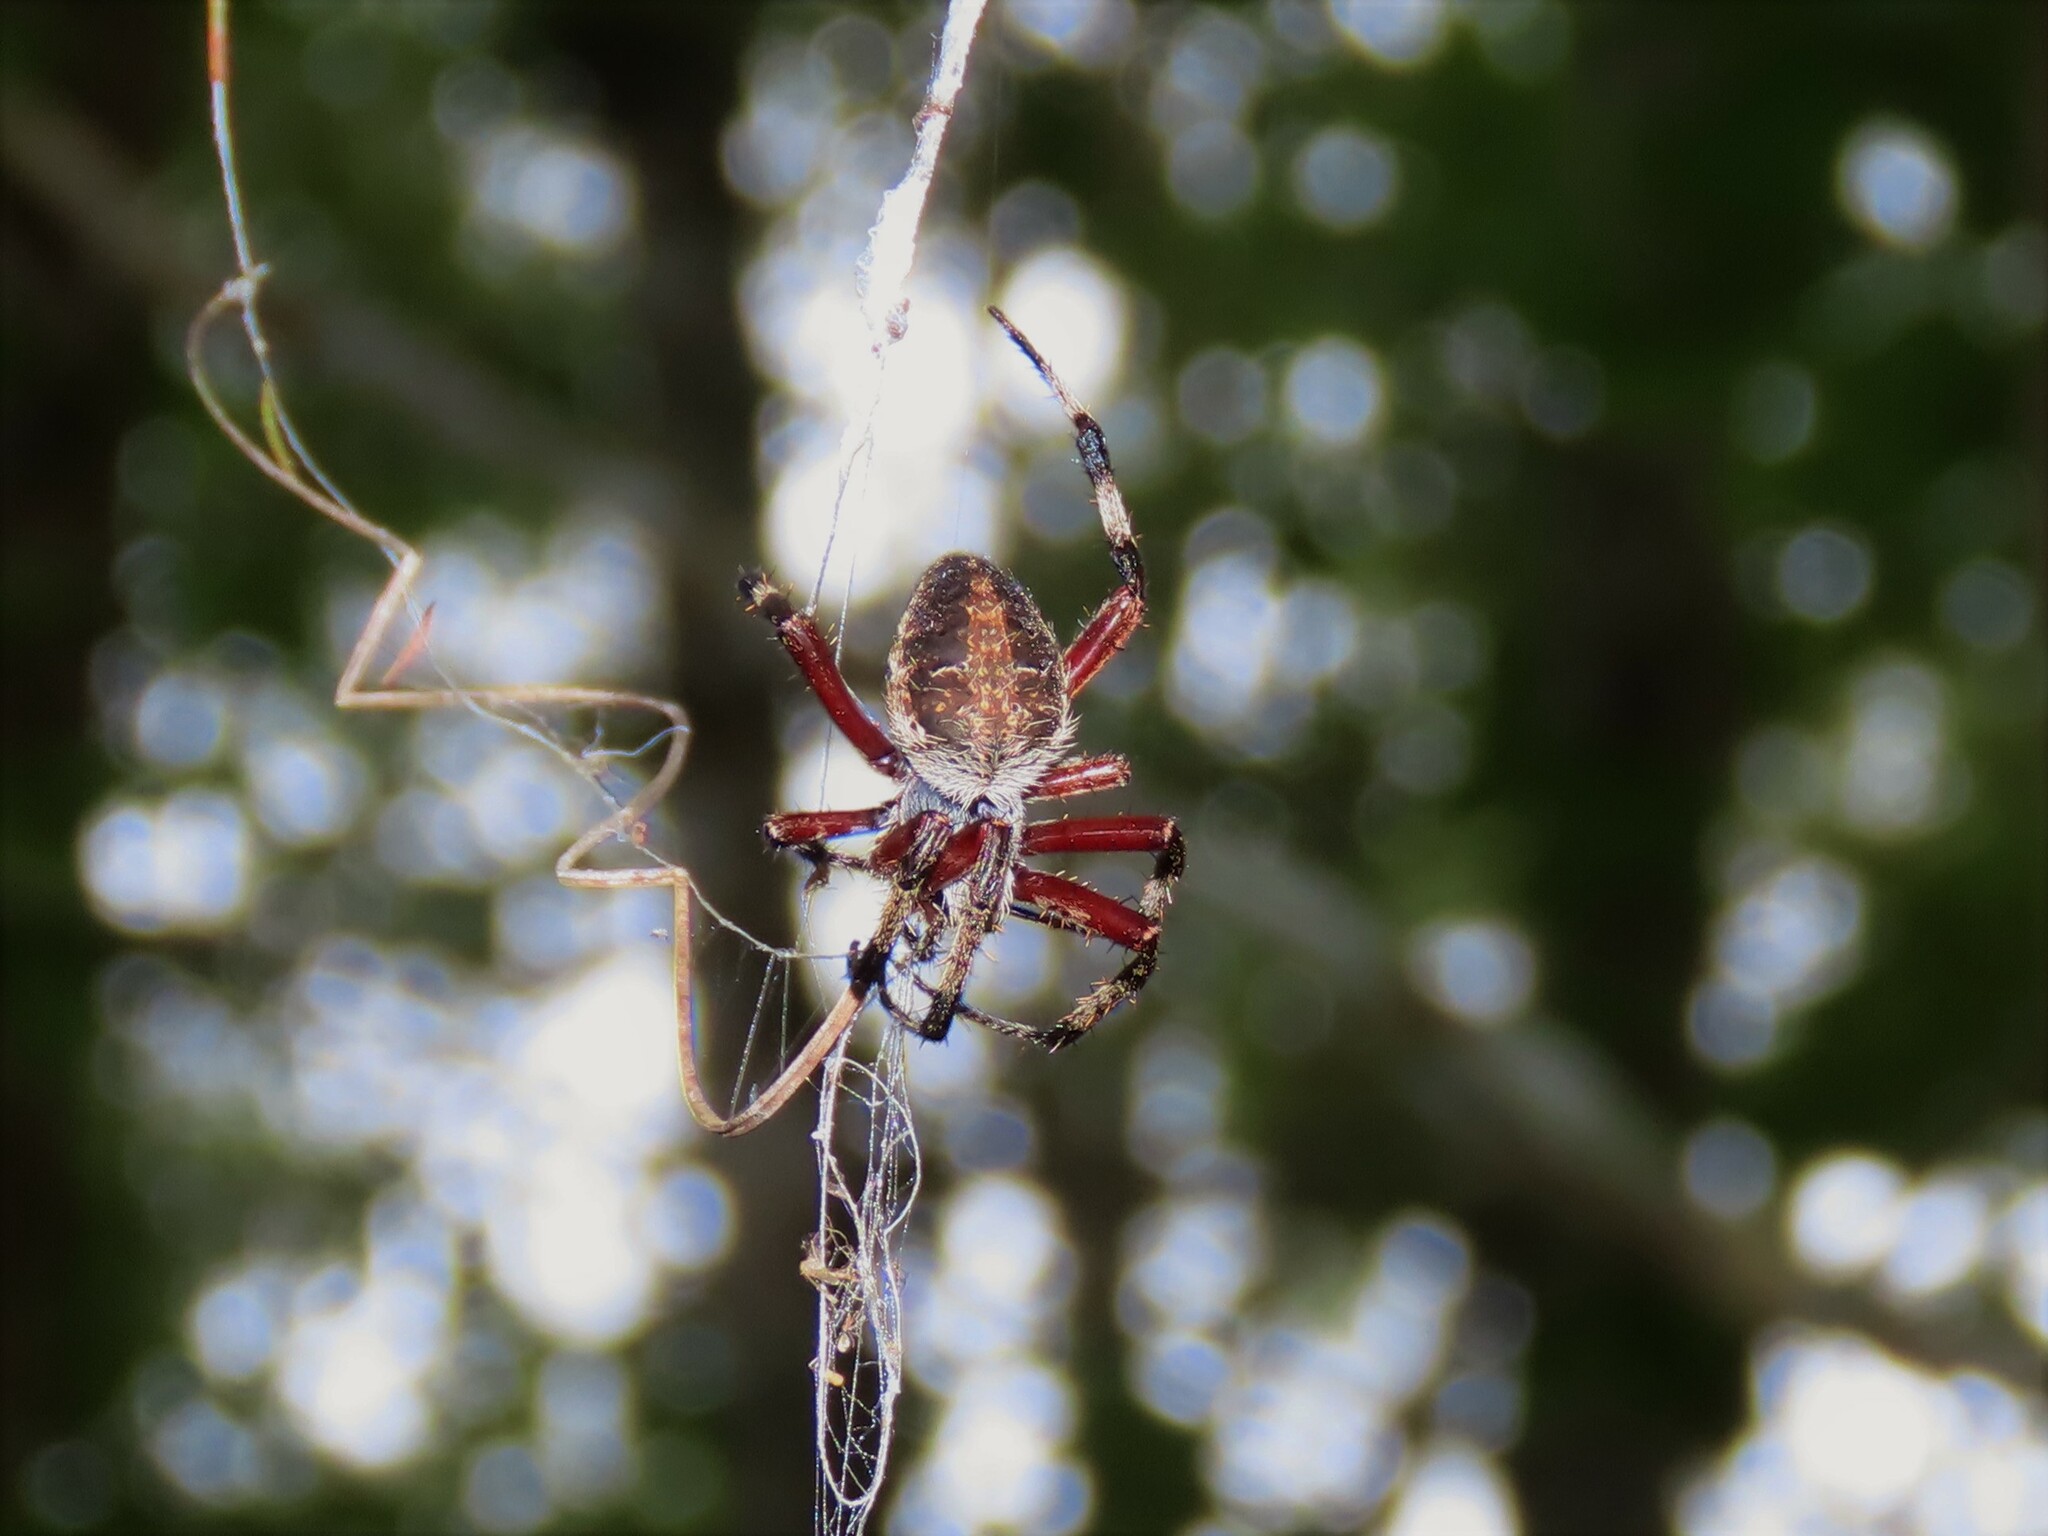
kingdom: Animalia
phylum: Arthropoda
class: Arachnida
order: Araneae
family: Araneidae
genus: Neoscona
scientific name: Neoscona domiciliorum
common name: Red-femured spotted orbweaver
